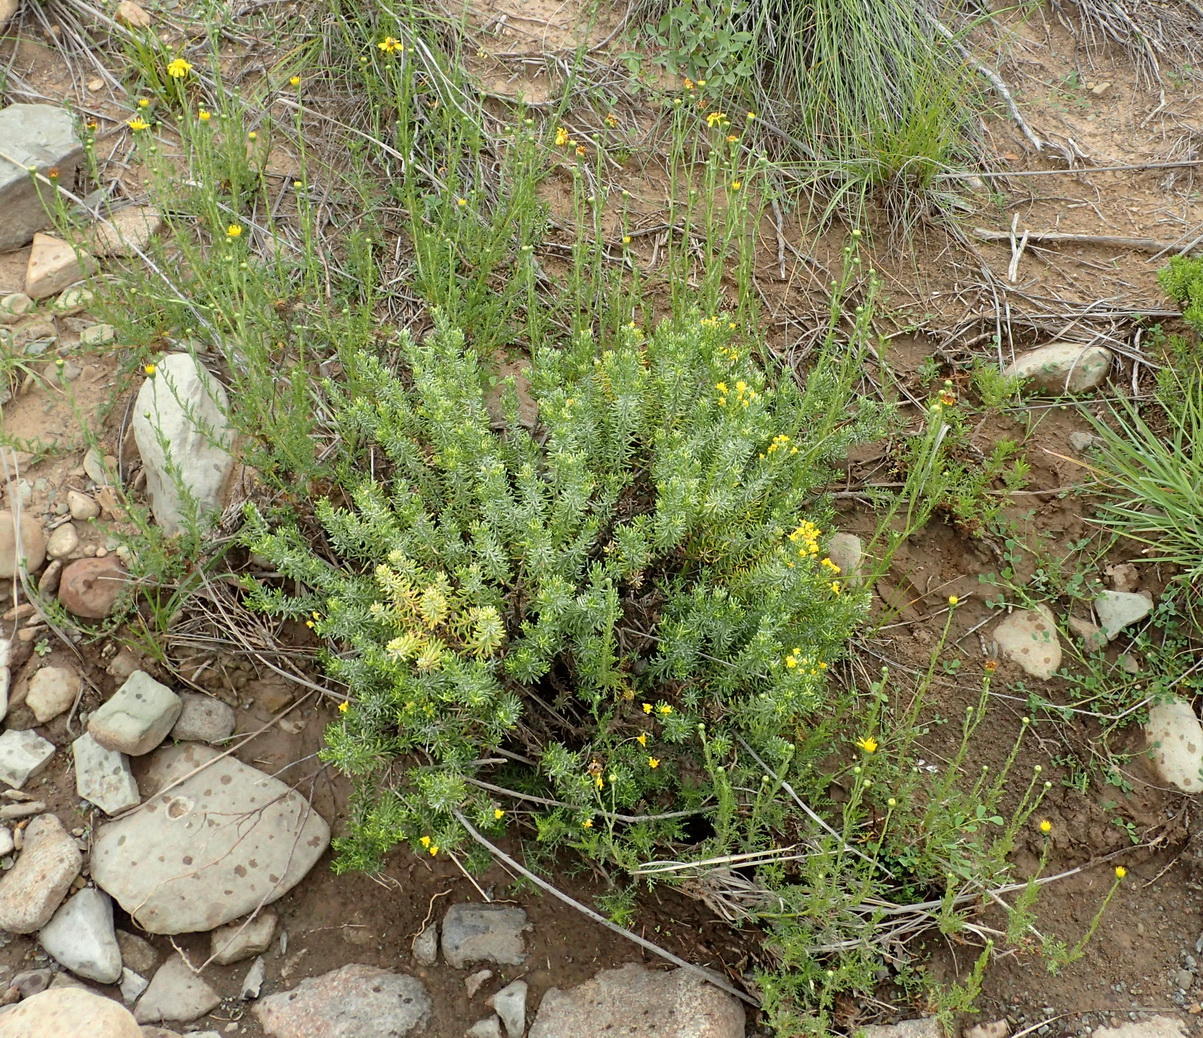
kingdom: Plantae
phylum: Tracheophyta
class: Magnoliopsida
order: Asterales
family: Asteraceae
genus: Senecio
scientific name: Senecio achilleifolius
